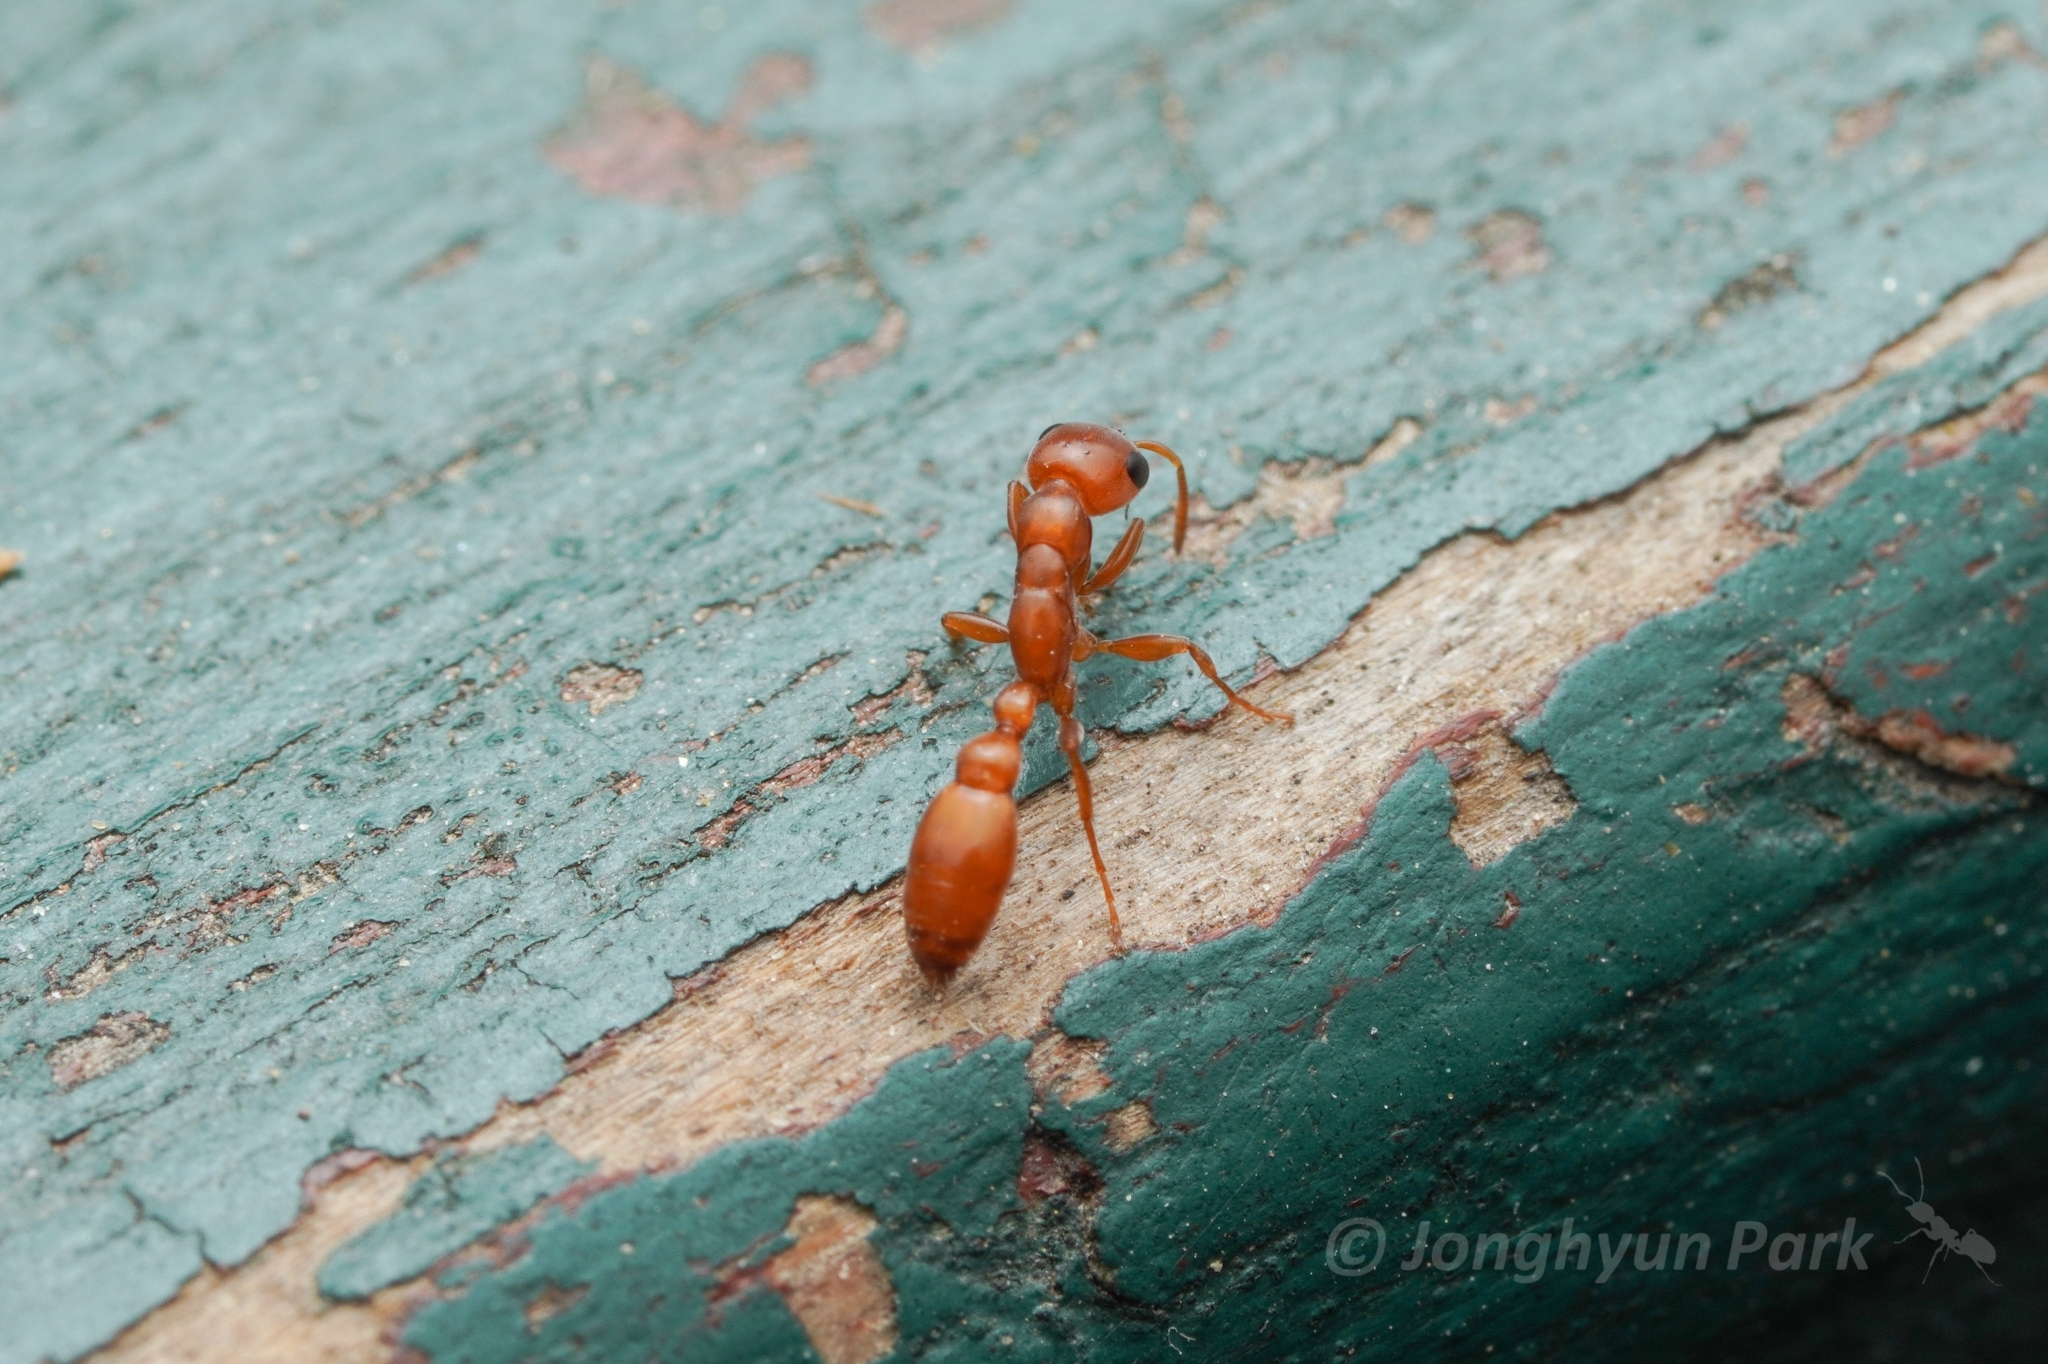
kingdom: Animalia
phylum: Arthropoda
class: Insecta
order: Hymenoptera
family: Formicidae
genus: Pseudomyrmex
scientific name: Pseudomyrmex apache
